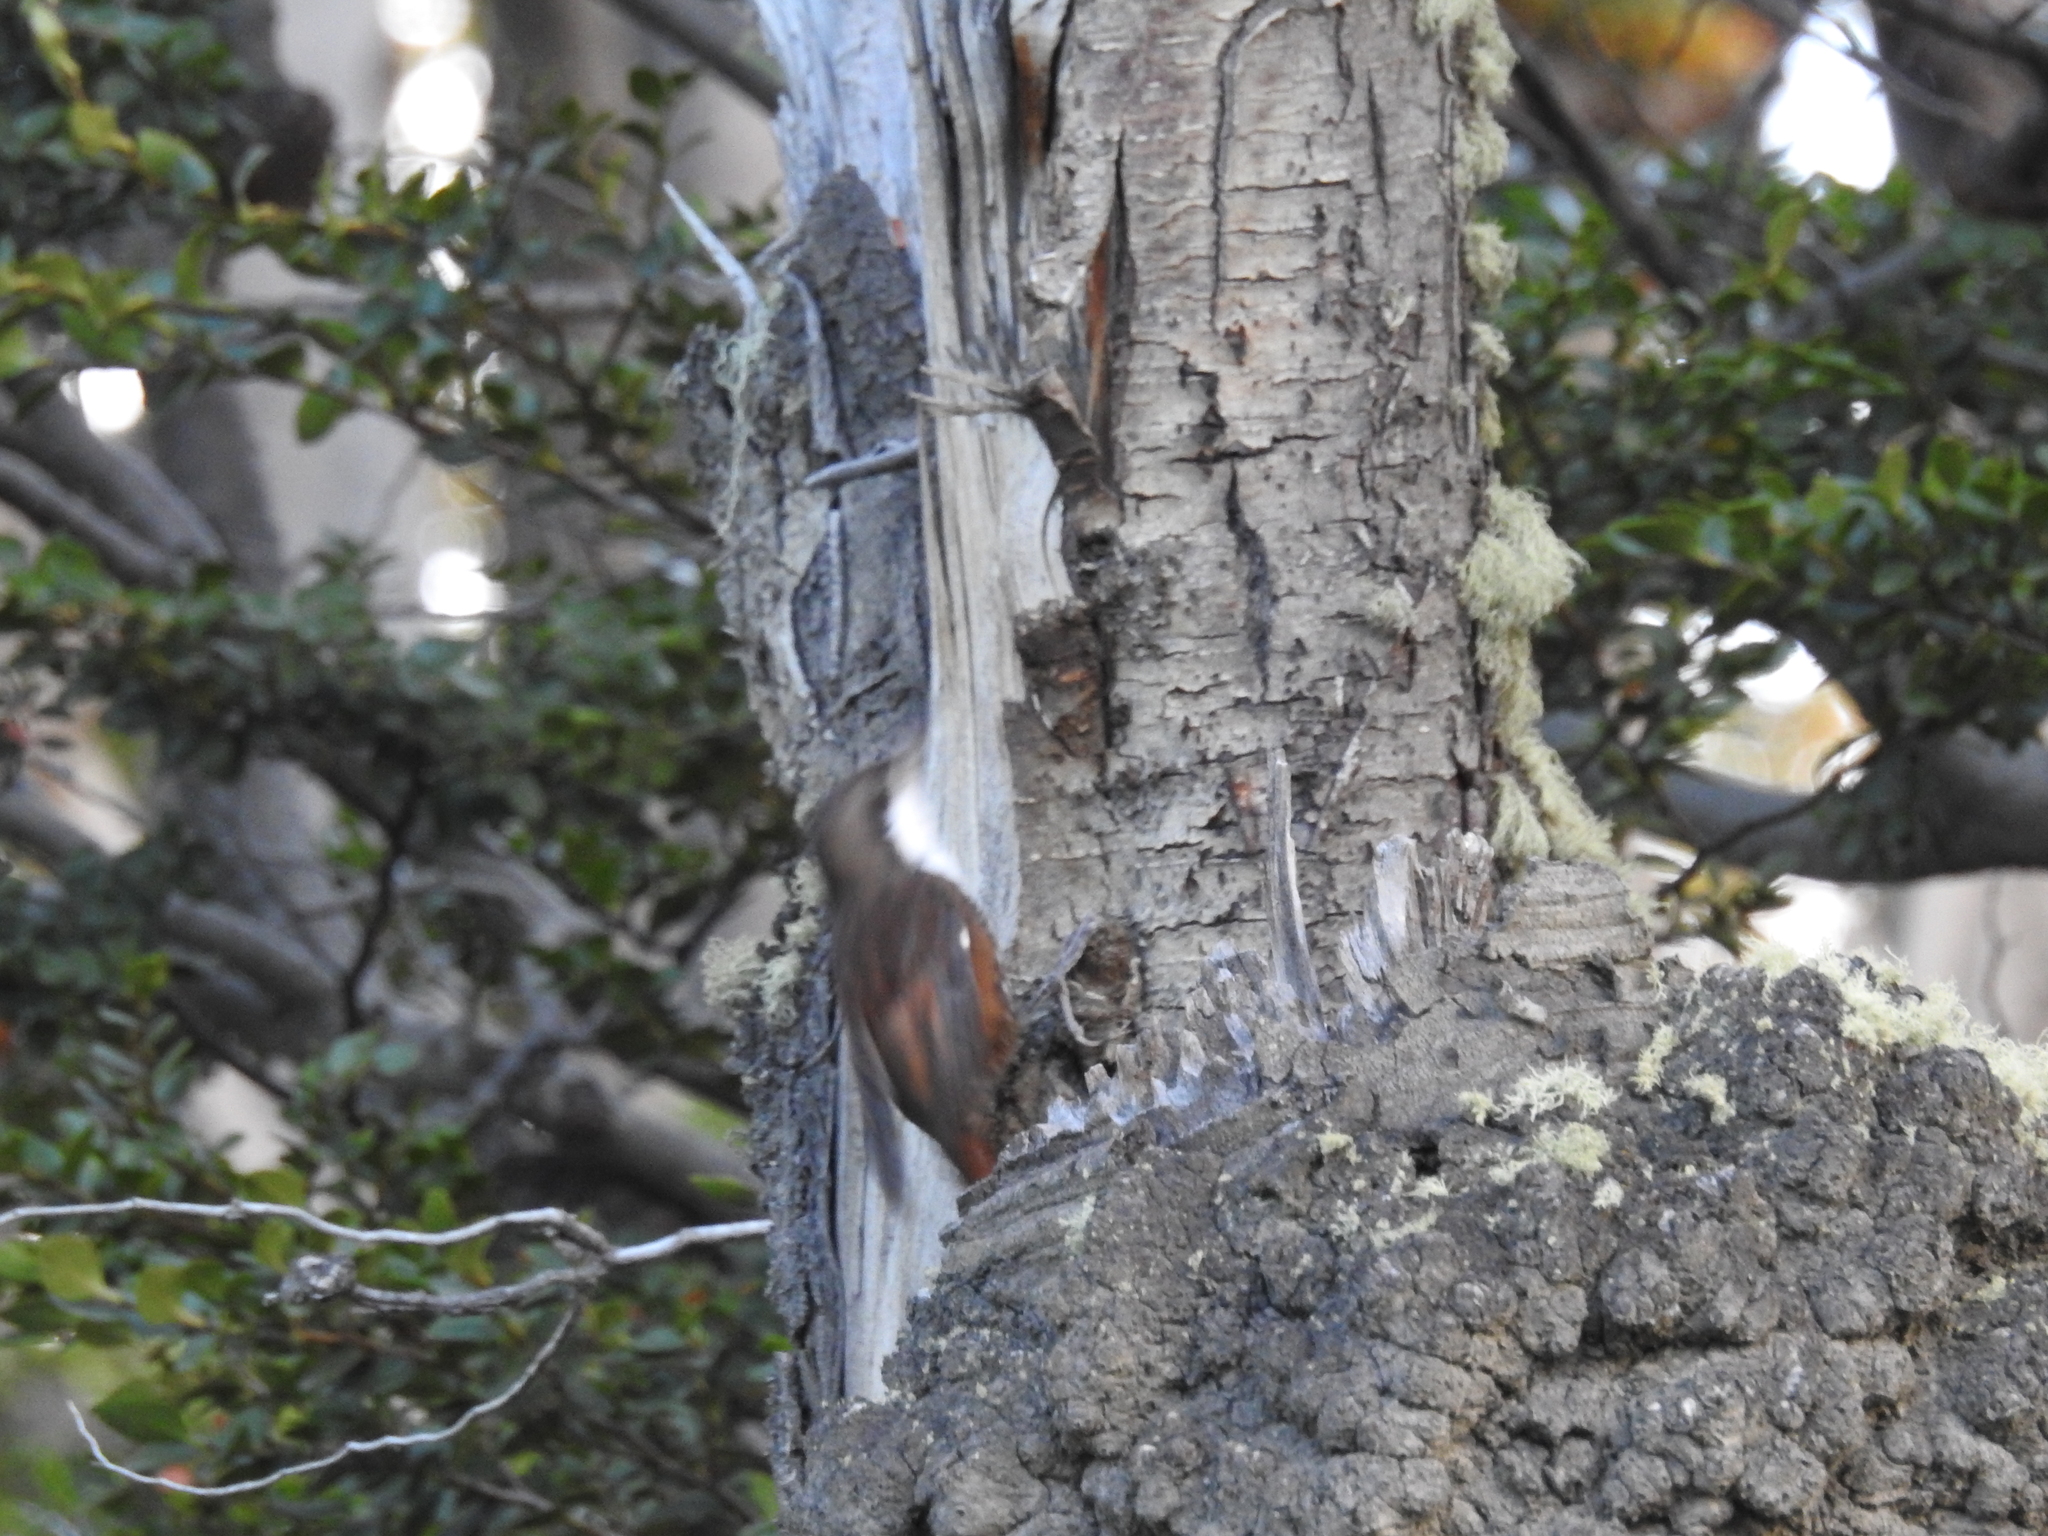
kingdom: Animalia
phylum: Chordata
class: Aves
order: Passeriformes
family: Furnariidae
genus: Pygarrhichas
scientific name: Pygarrhichas albogularis
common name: White-throated treerunner
